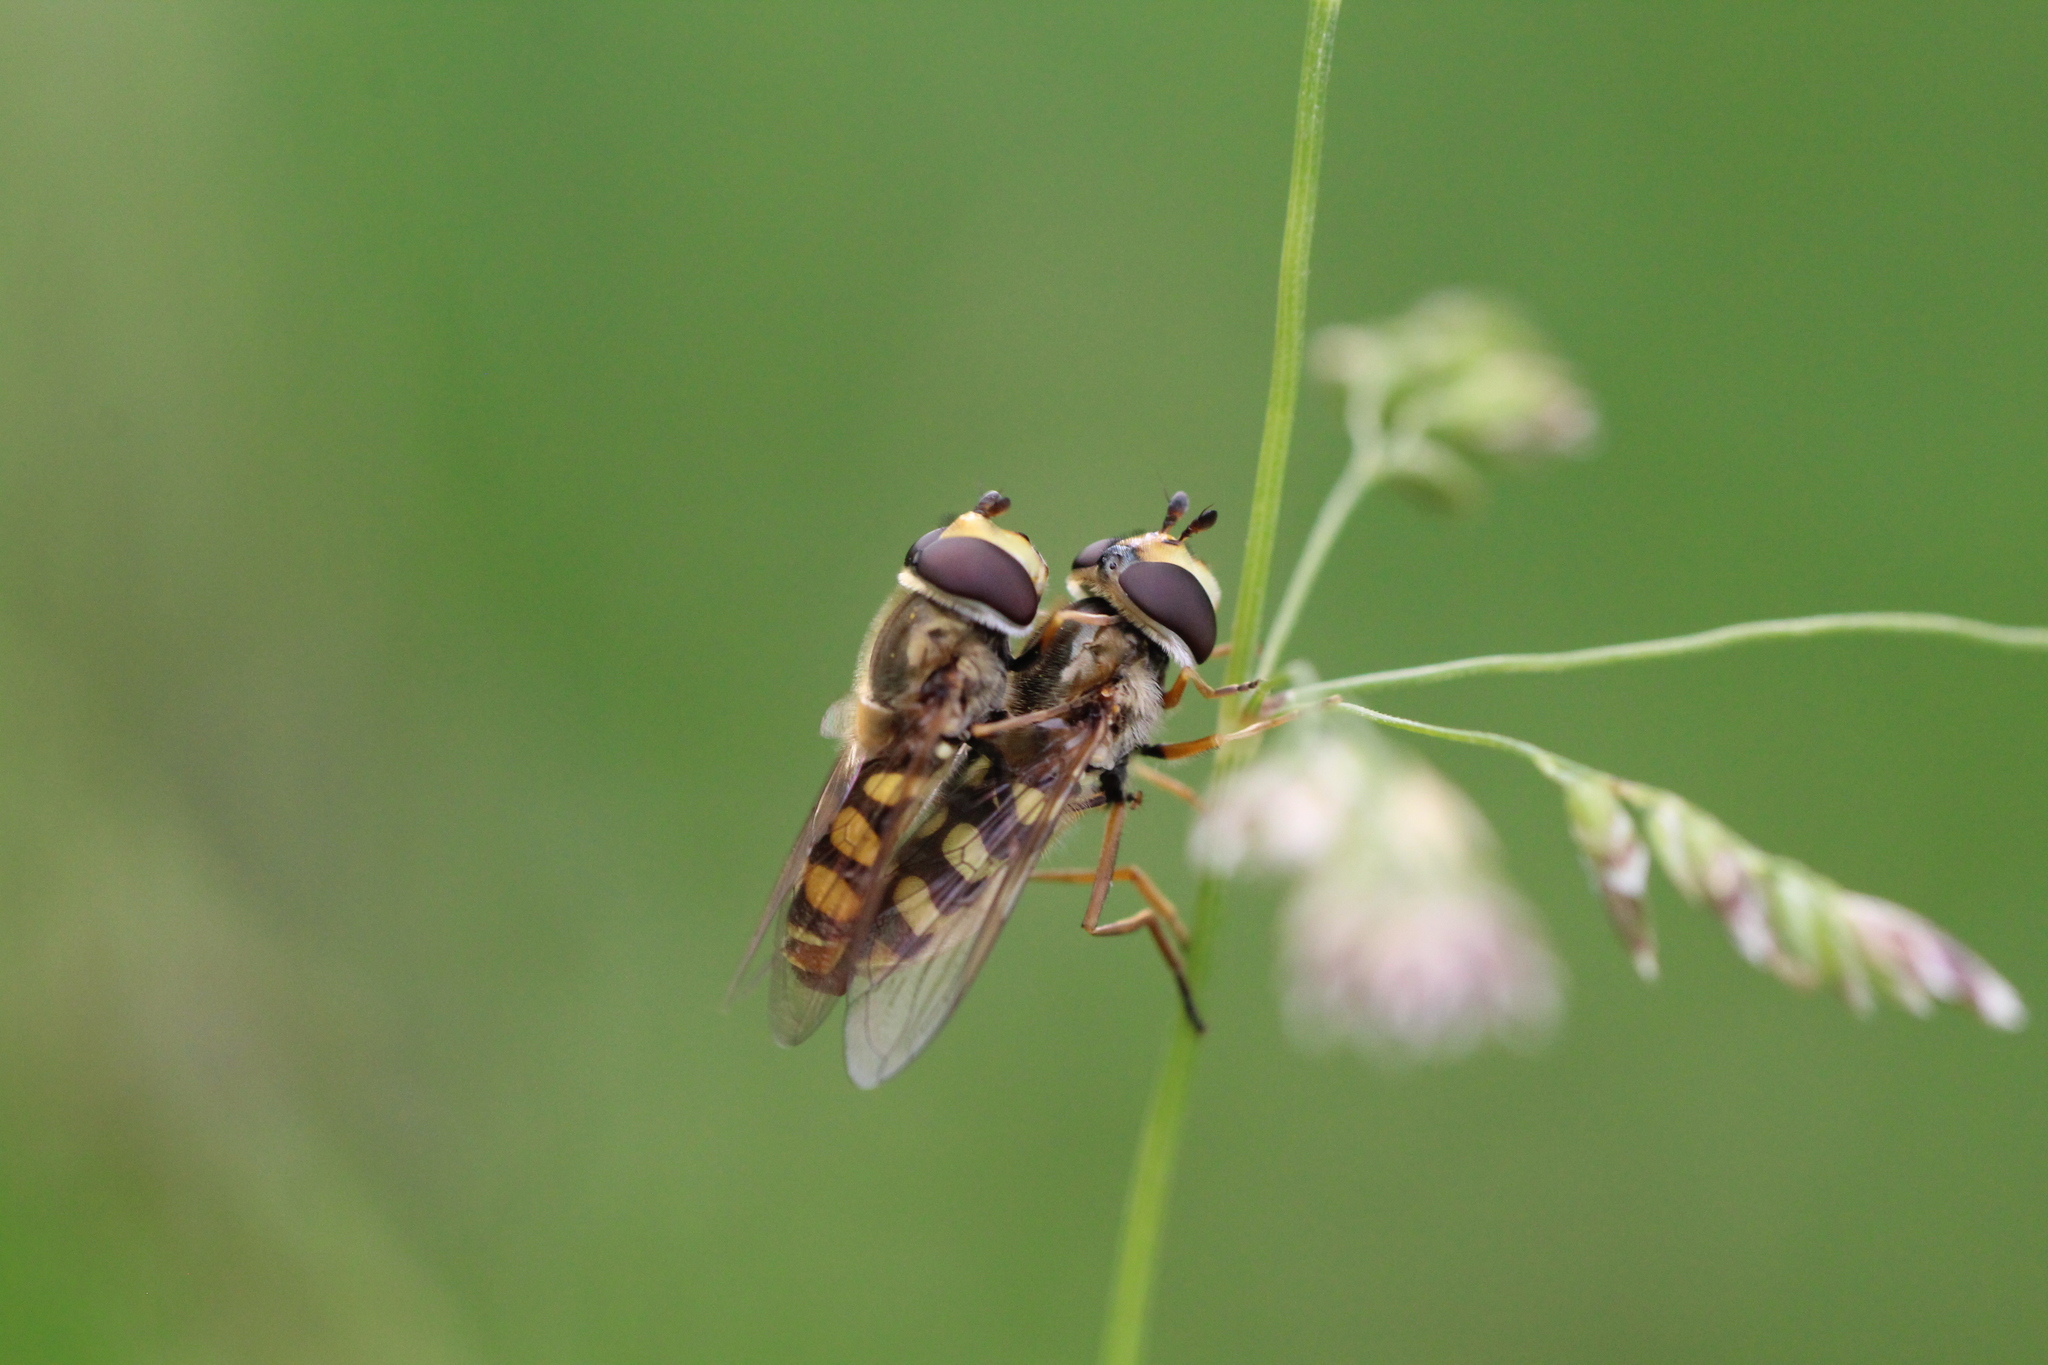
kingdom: Animalia
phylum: Arthropoda
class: Insecta
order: Diptera
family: Syrphidae
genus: Eupeodes
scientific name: Eupeodes corollae
